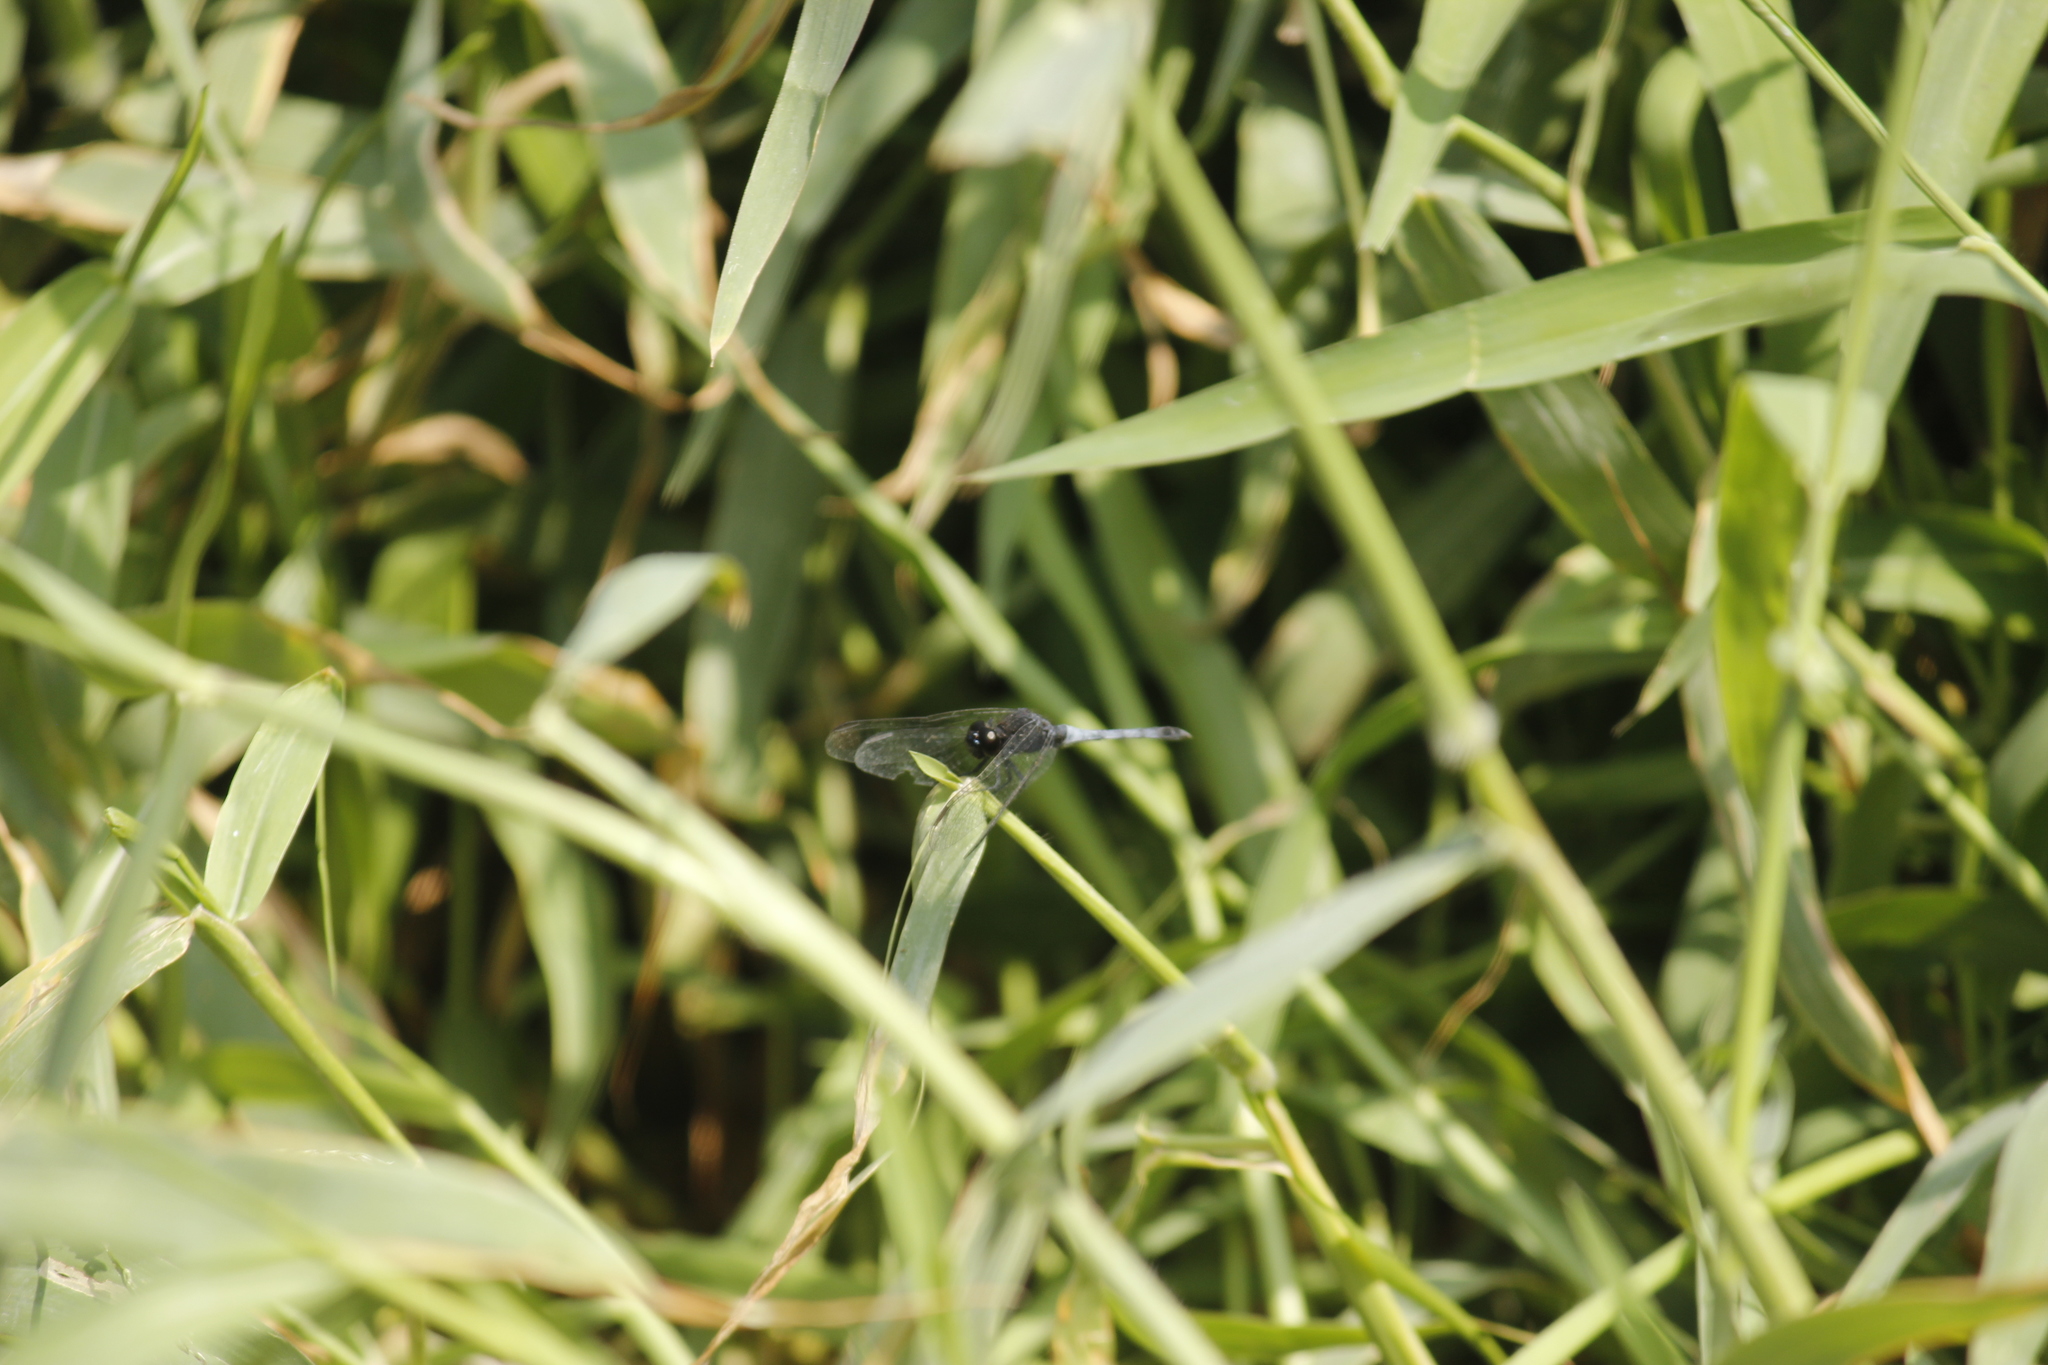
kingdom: Animalia
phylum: Arthropoda
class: Insecta
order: Odonata
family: Libellulidae
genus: Erythrodiplax
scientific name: Erythrodiplax cleopatra
